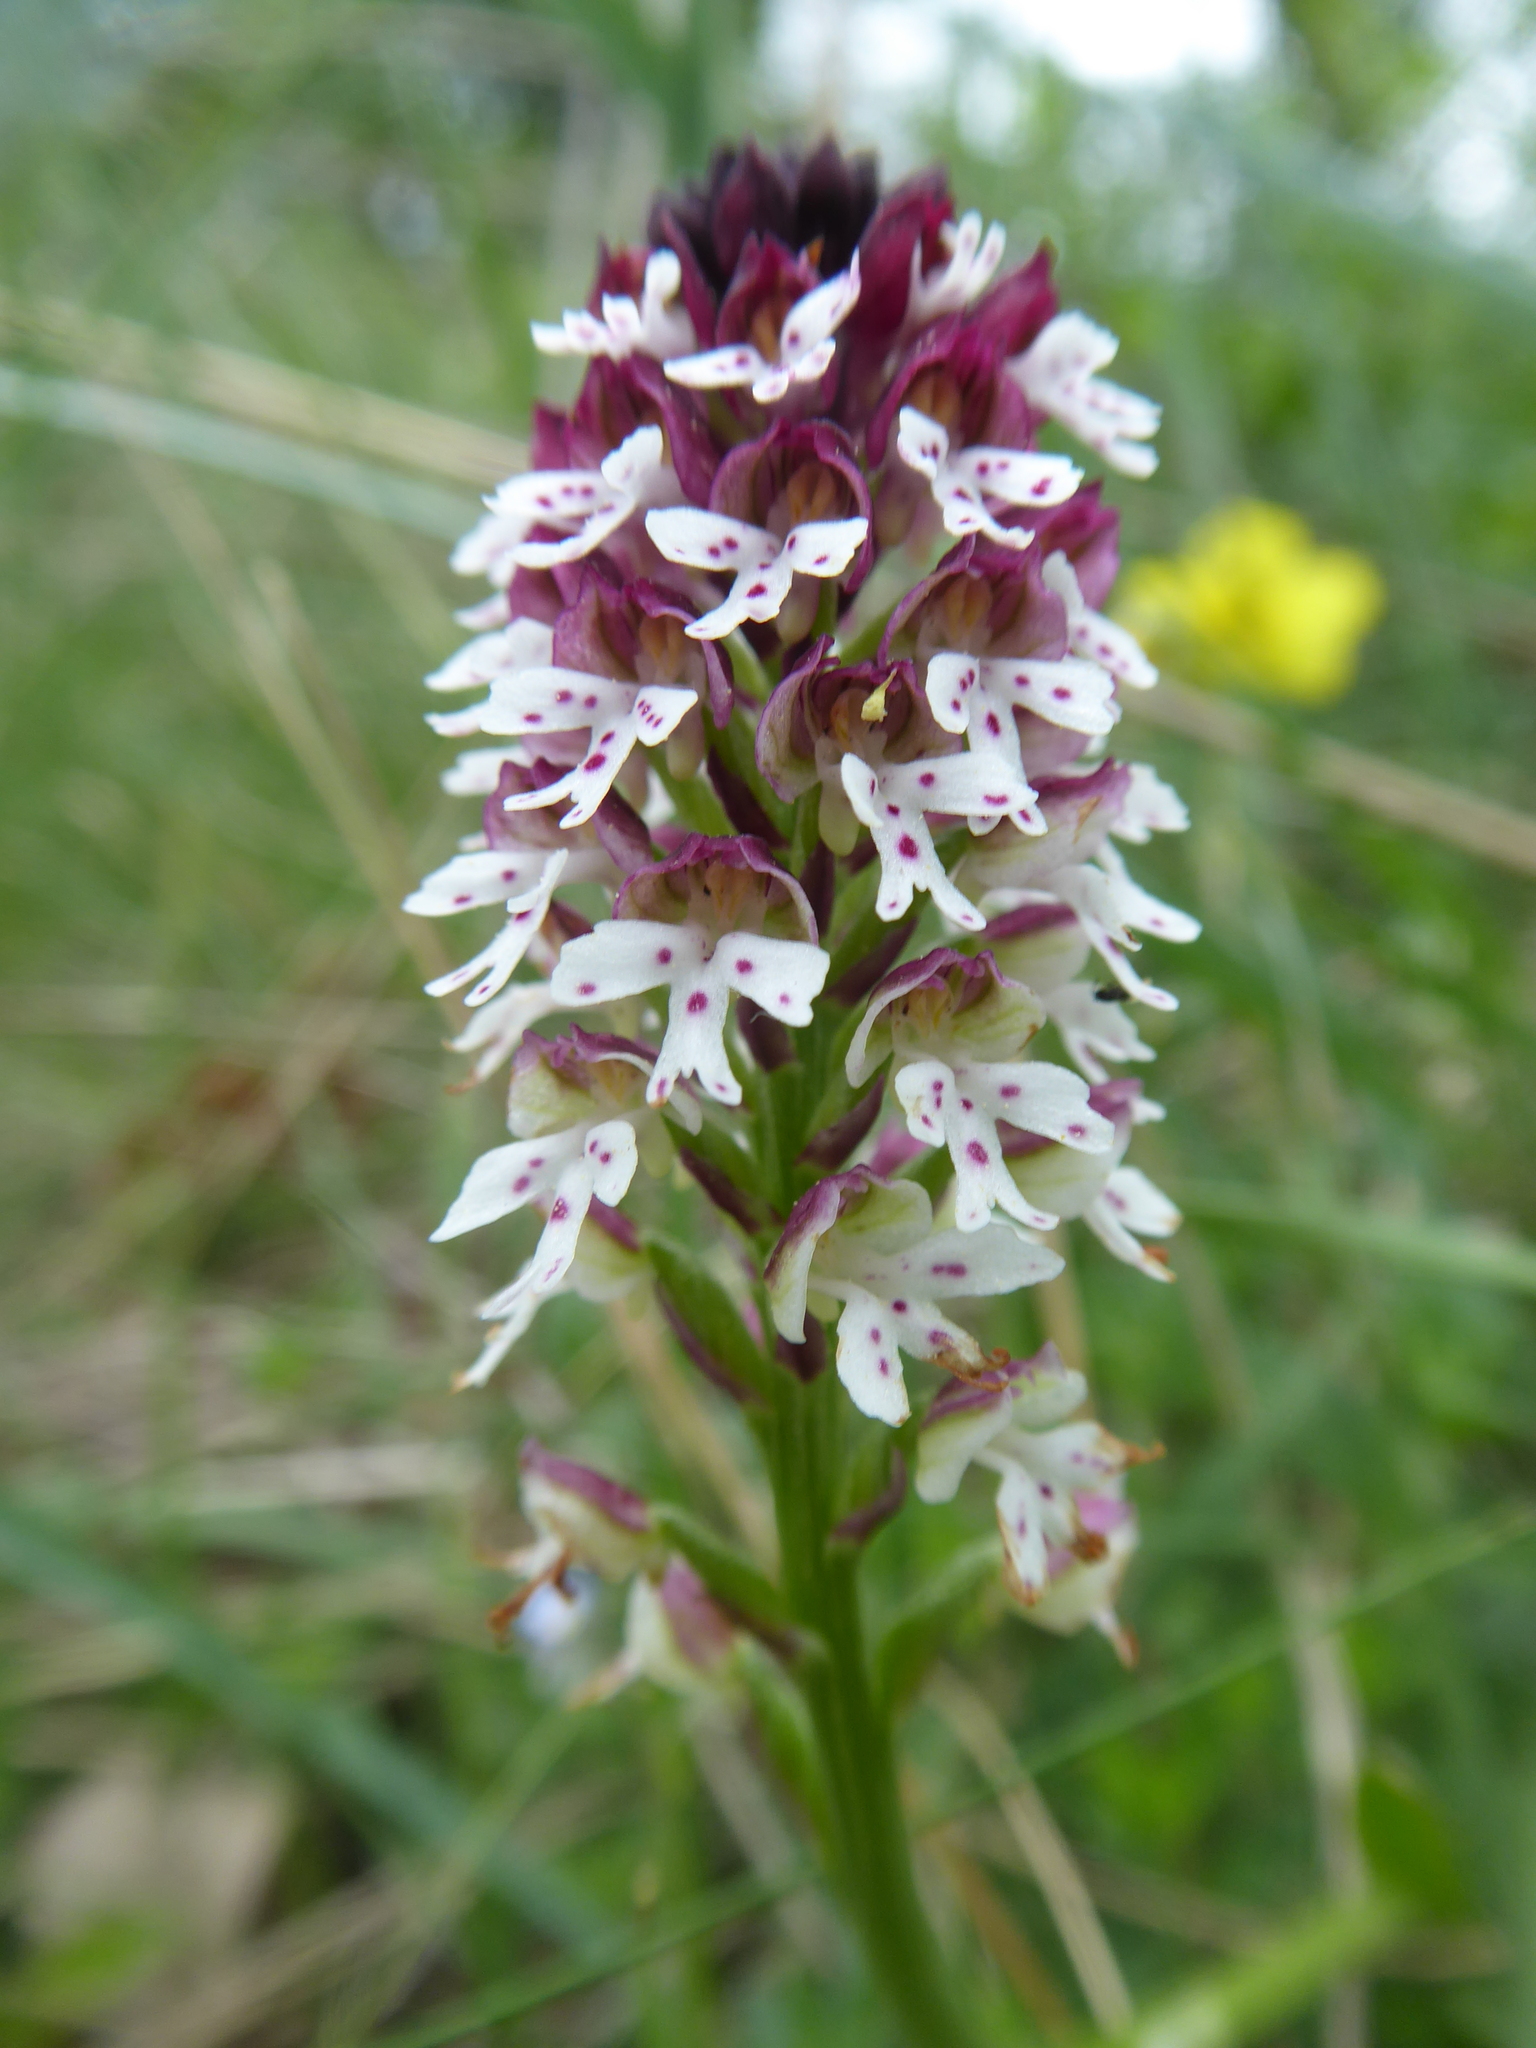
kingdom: Plantae
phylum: Tracheophyta
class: Liliopsida
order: Asparagales
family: Orchidaceae
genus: Neotinea
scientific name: Neotinea ustulata
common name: Burnt orchid
